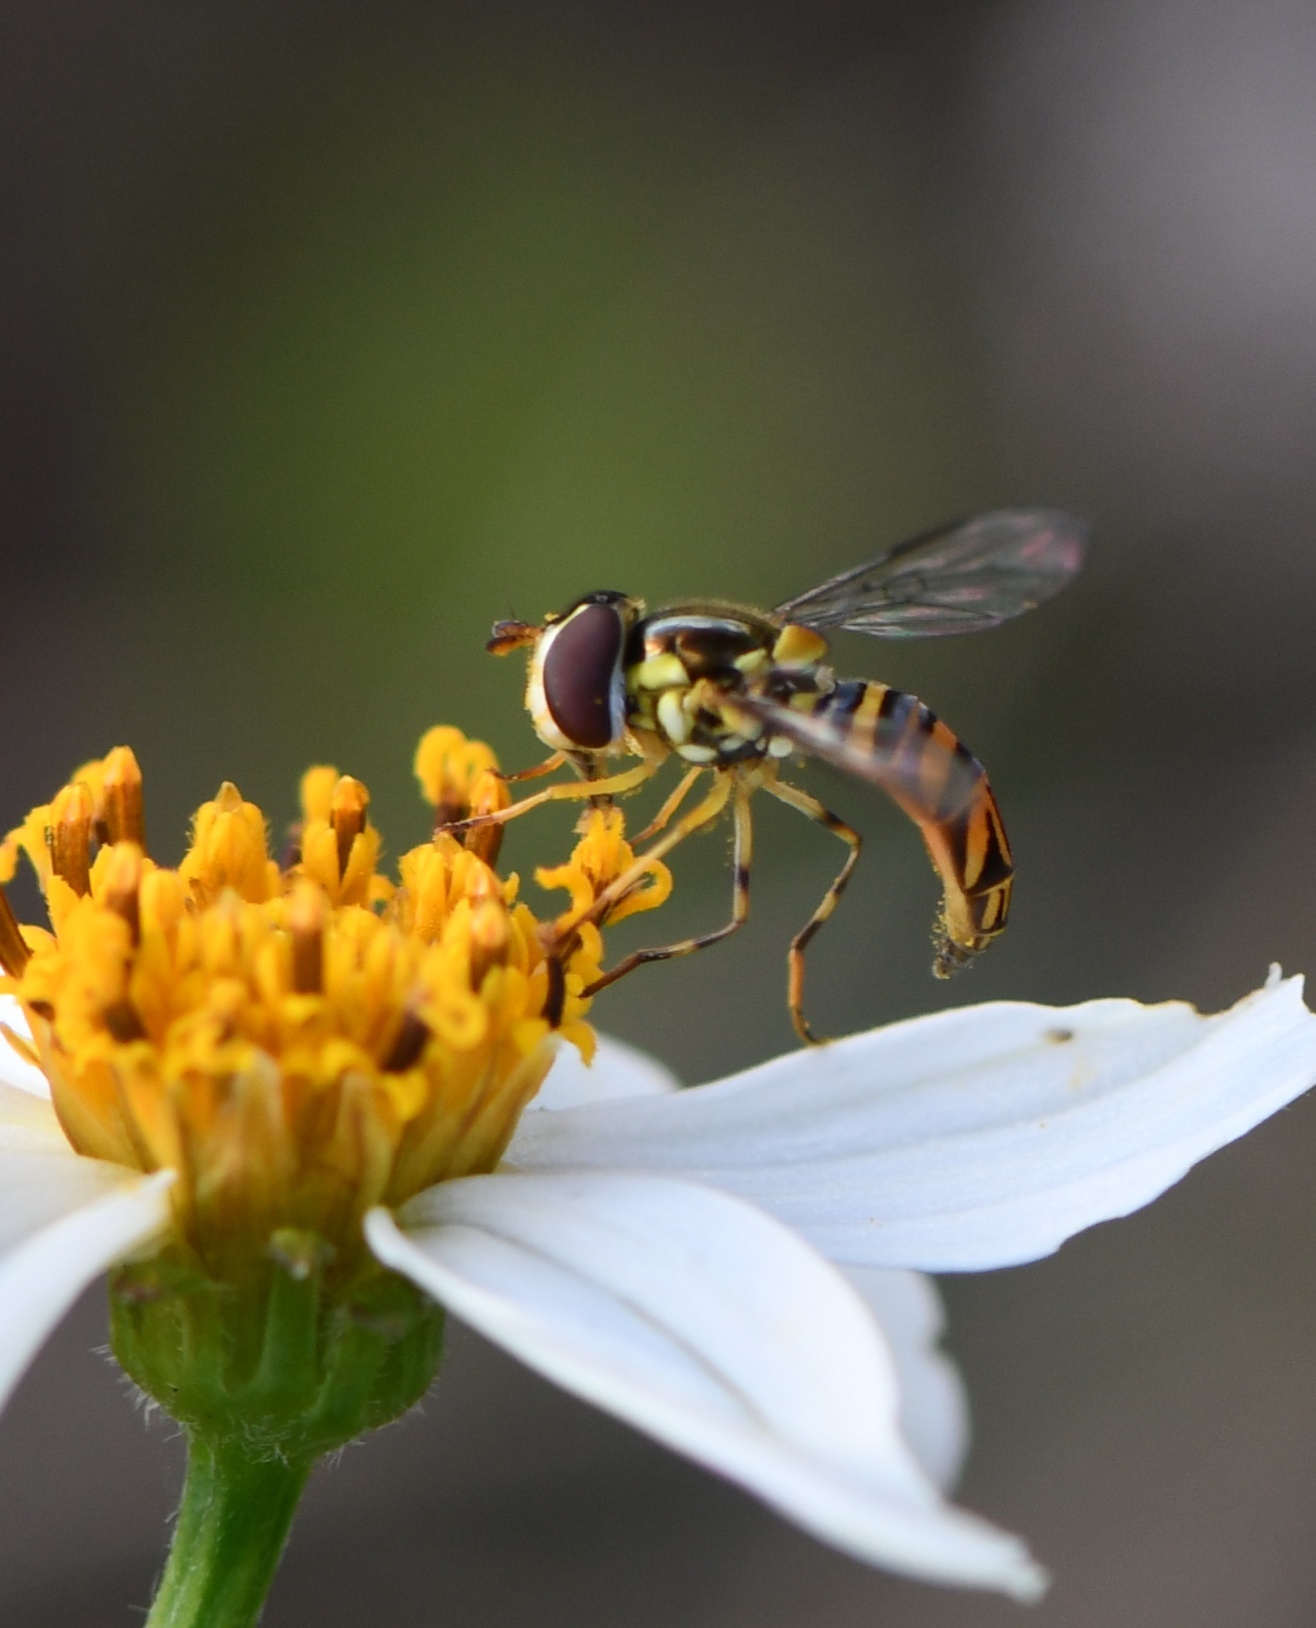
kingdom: Animalia
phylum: Arthropoda
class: Insecta
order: Diptera
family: Syrphidae
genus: Allograpta
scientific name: Allograpta obliqua
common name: Common oblique syrphid
